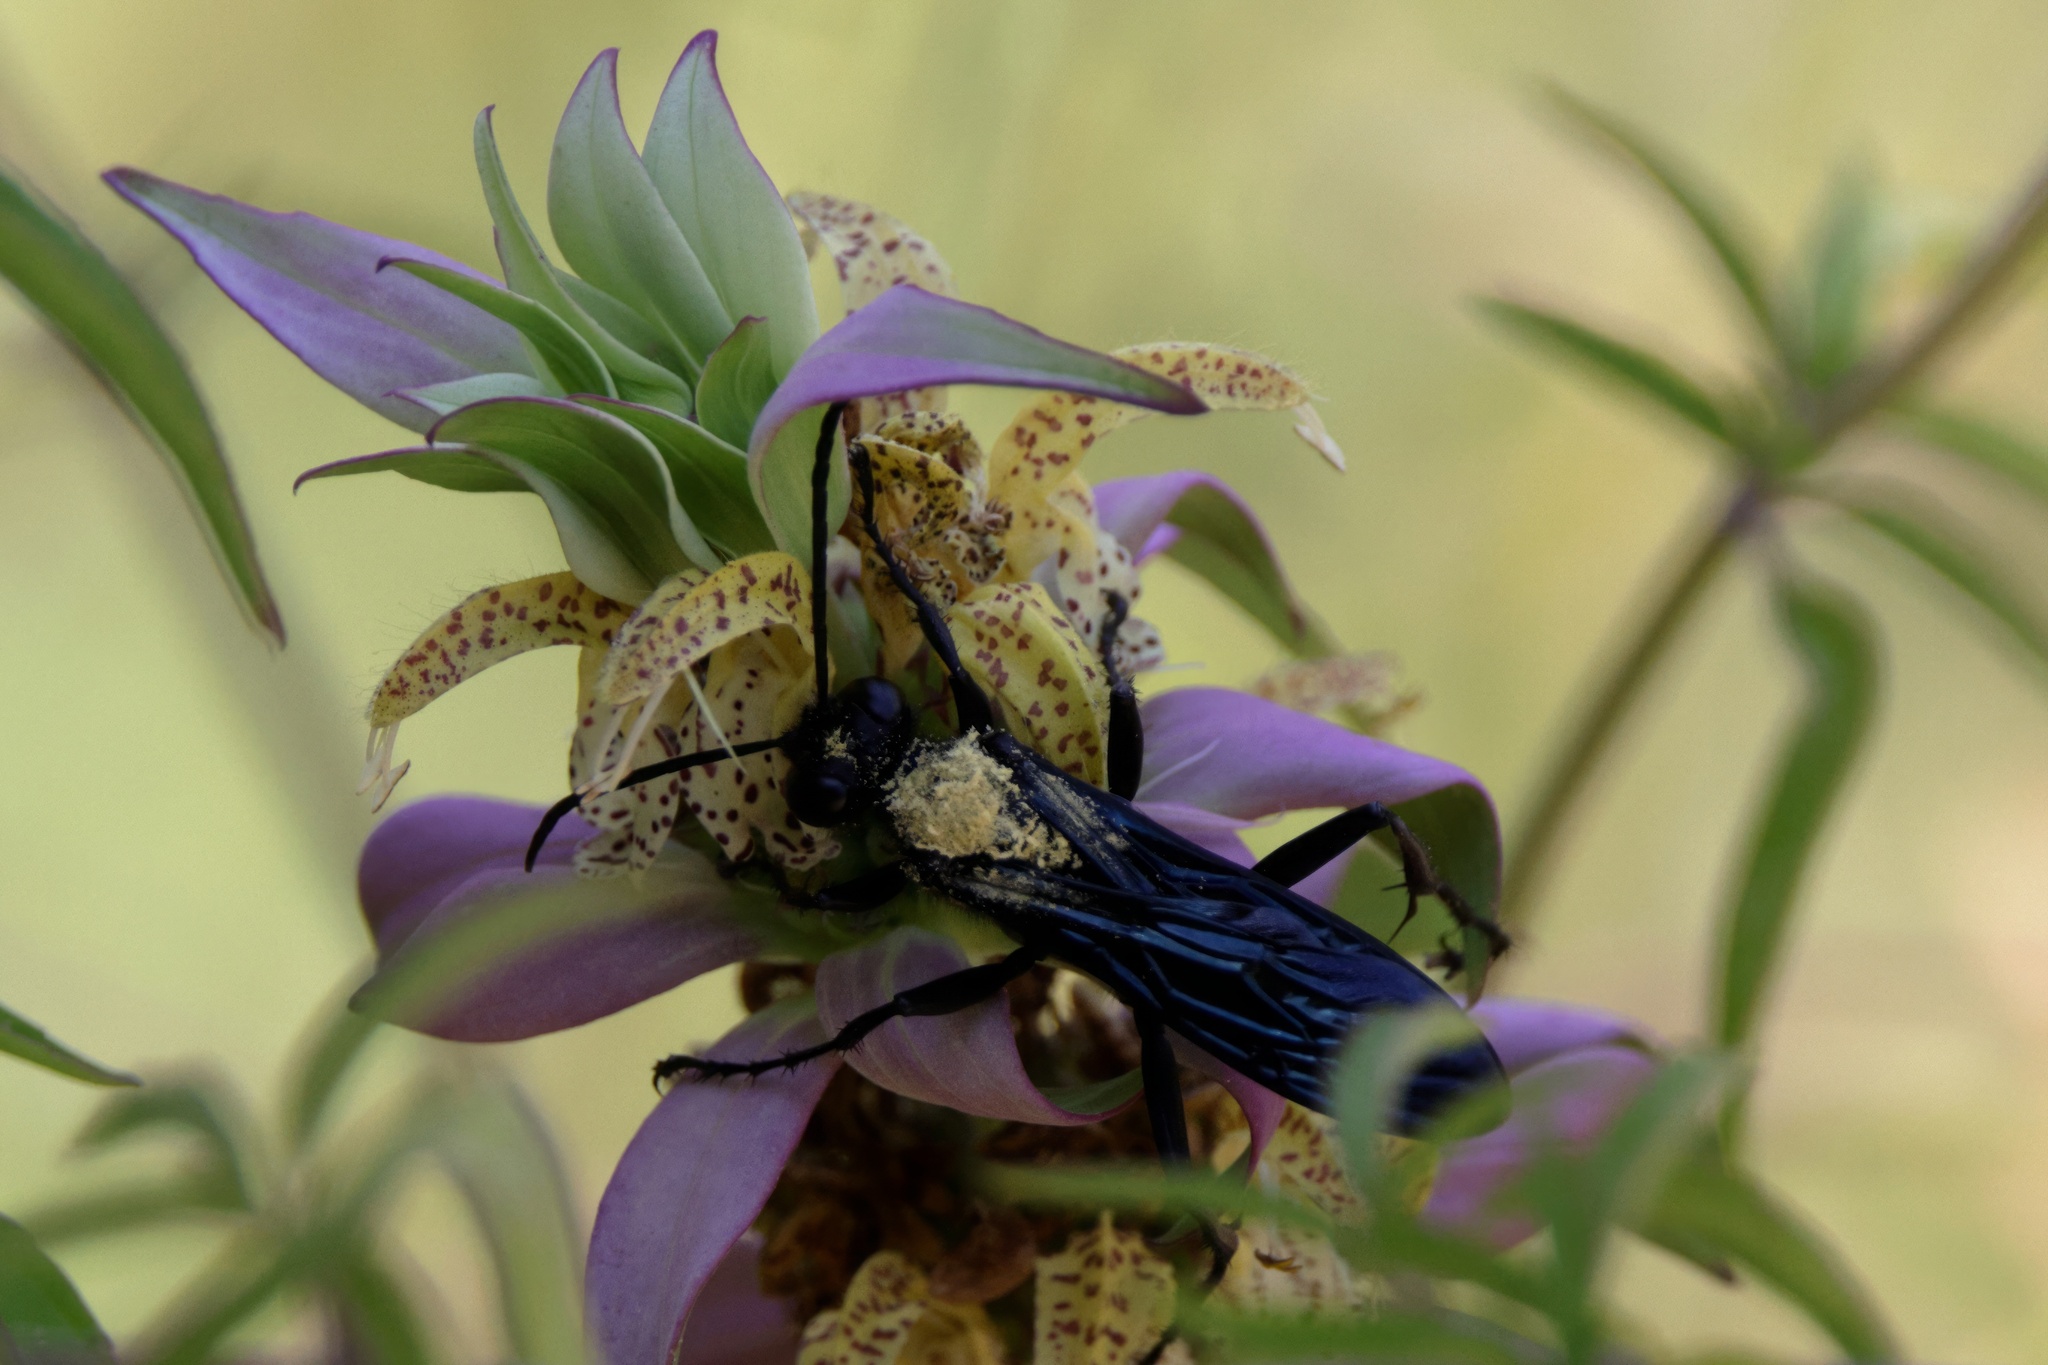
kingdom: Animalia
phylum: Arthropoda
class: Insecta
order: Hymenoptera
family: Sphecidae
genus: Sphex
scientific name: Sphex pensylvanicus
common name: Great black digger wasp
